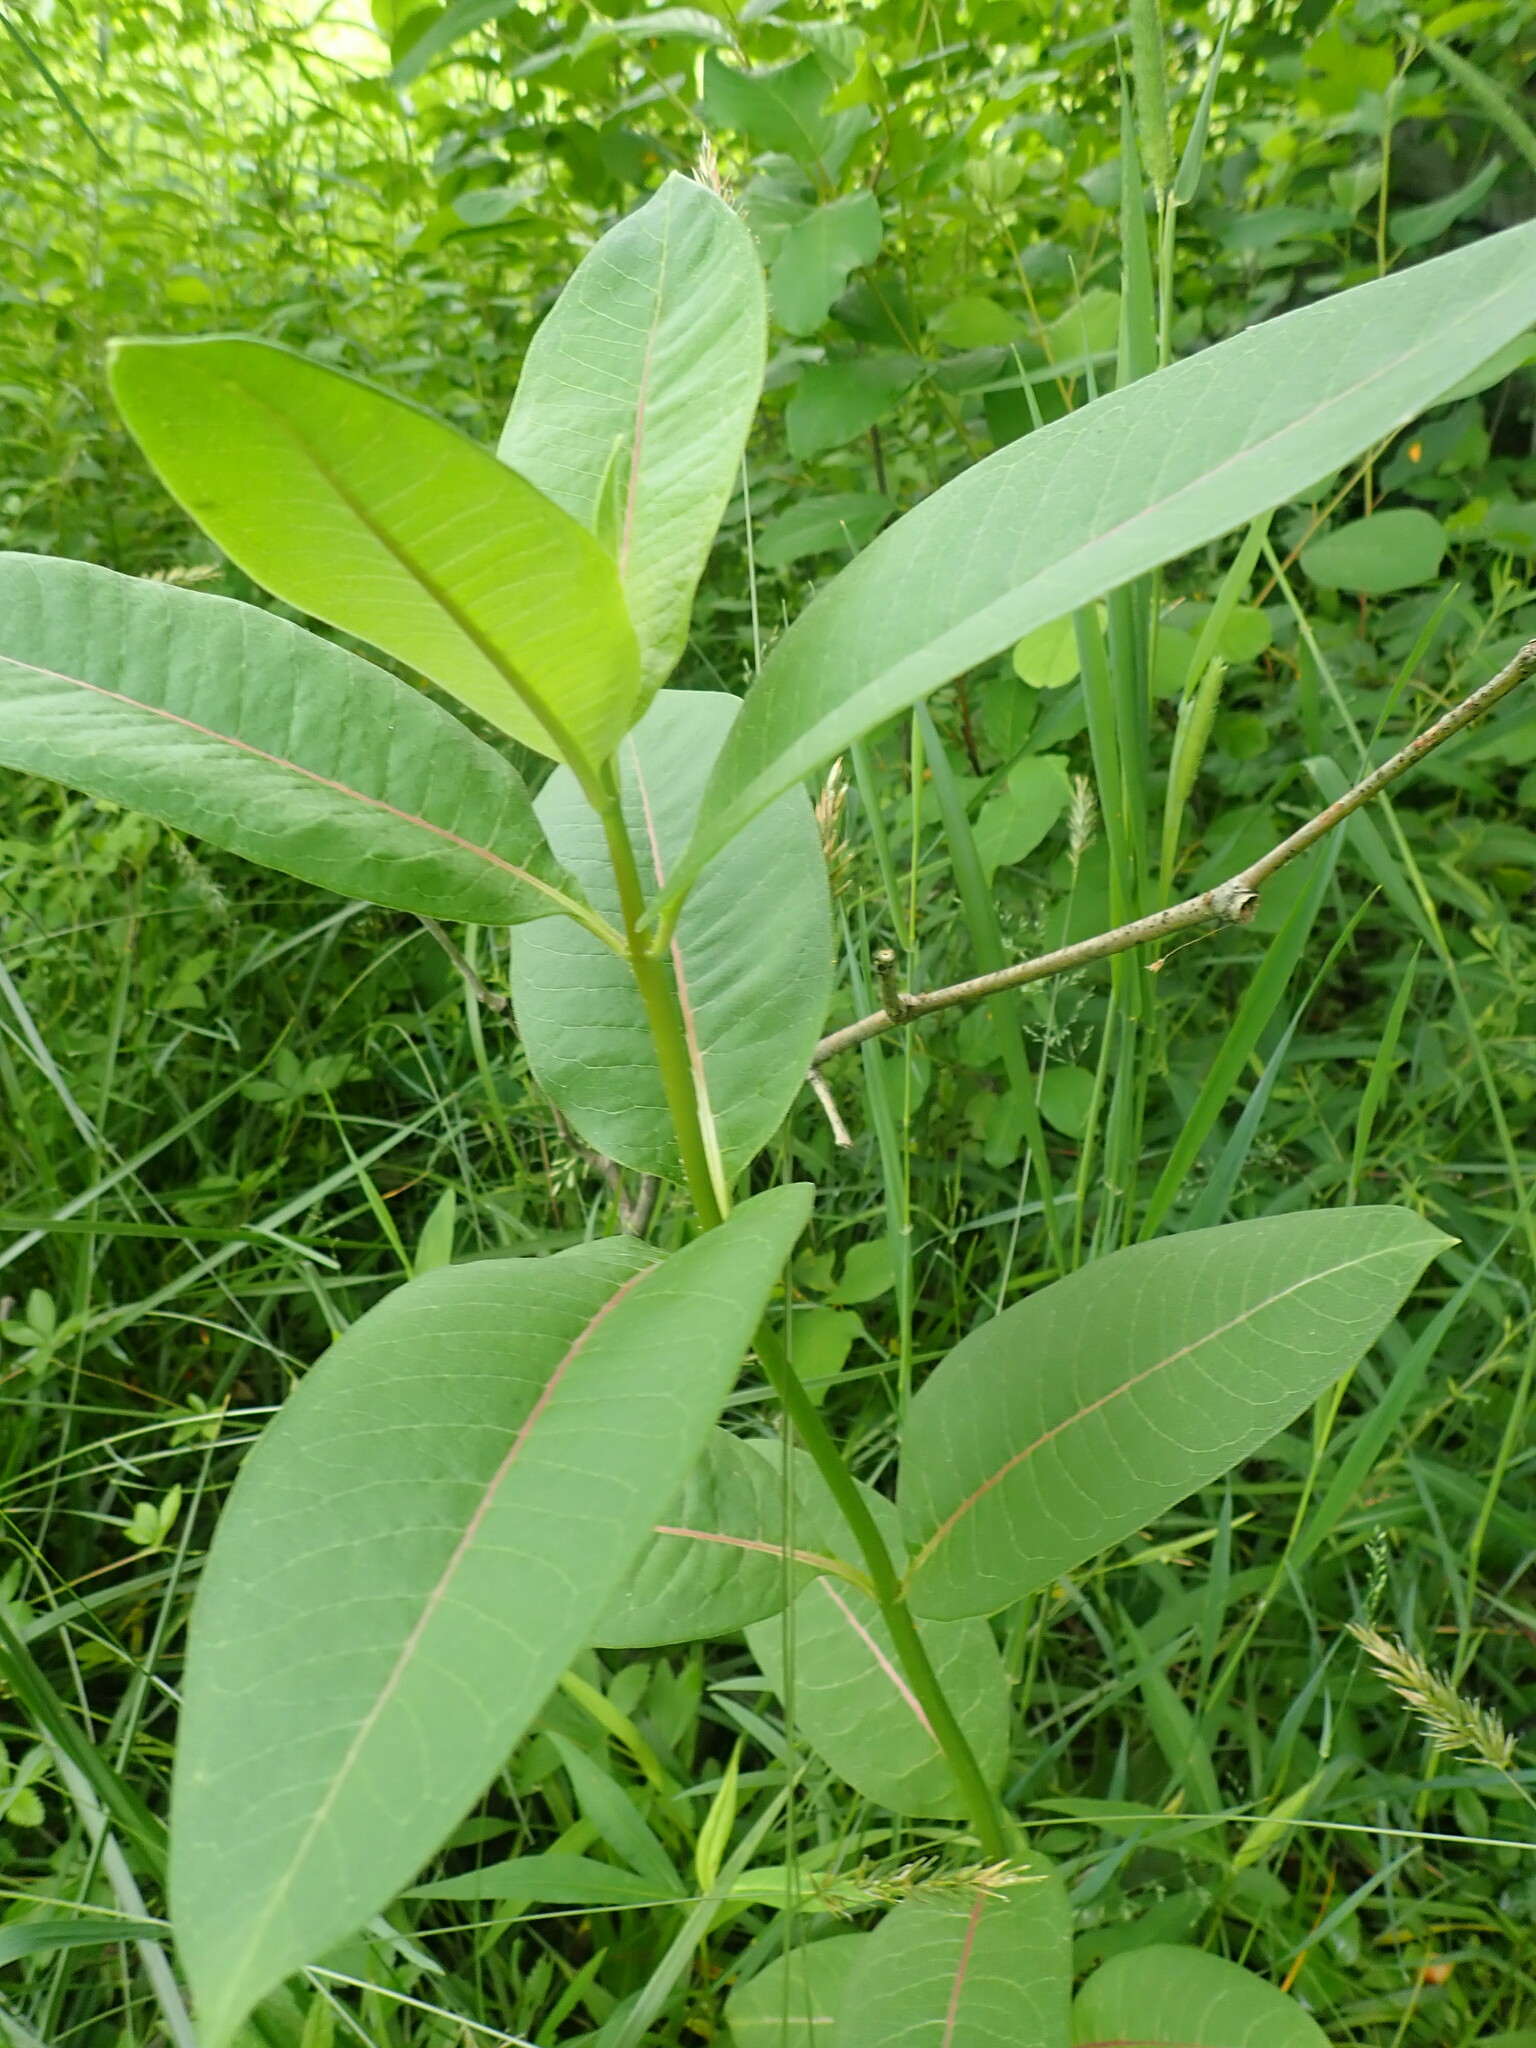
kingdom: Plantae
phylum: Tracheophyta
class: Magnoliopsida
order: Gentianales
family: Apocynaceae
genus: Asclepias
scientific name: Asclepias syriaca
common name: Common milkweed
